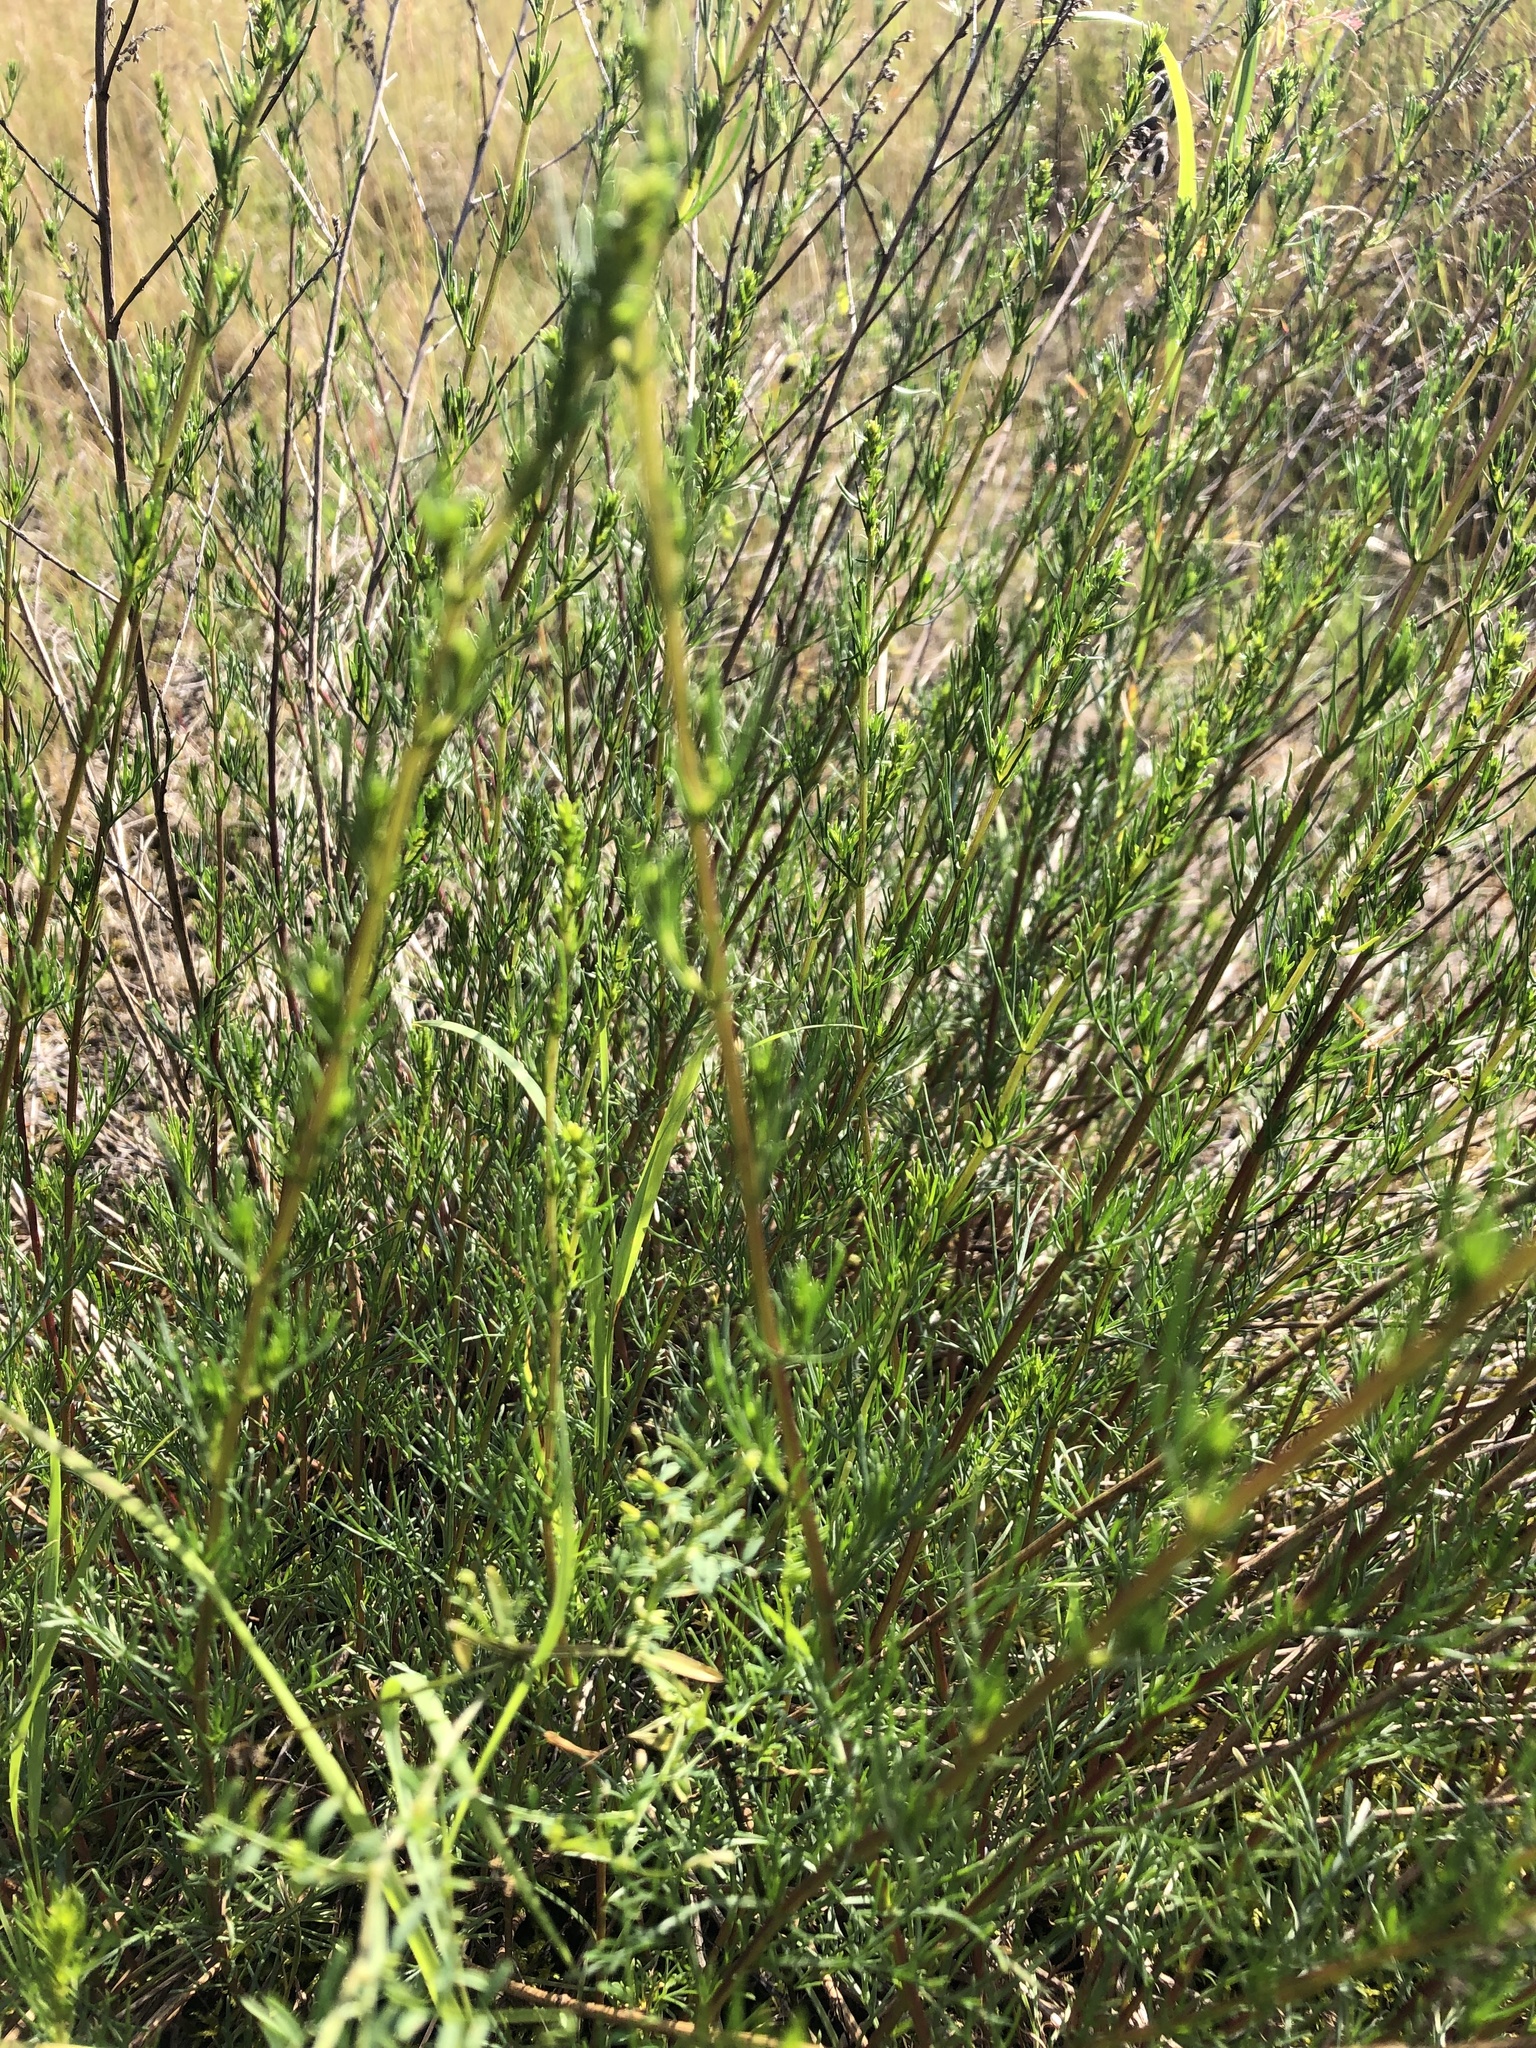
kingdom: Plantae
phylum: Tracheophyta
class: Magnoliopsida
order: Asterales
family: Asteraceae
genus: Artemisia
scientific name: Artemisia campestris
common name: Field wormwood
